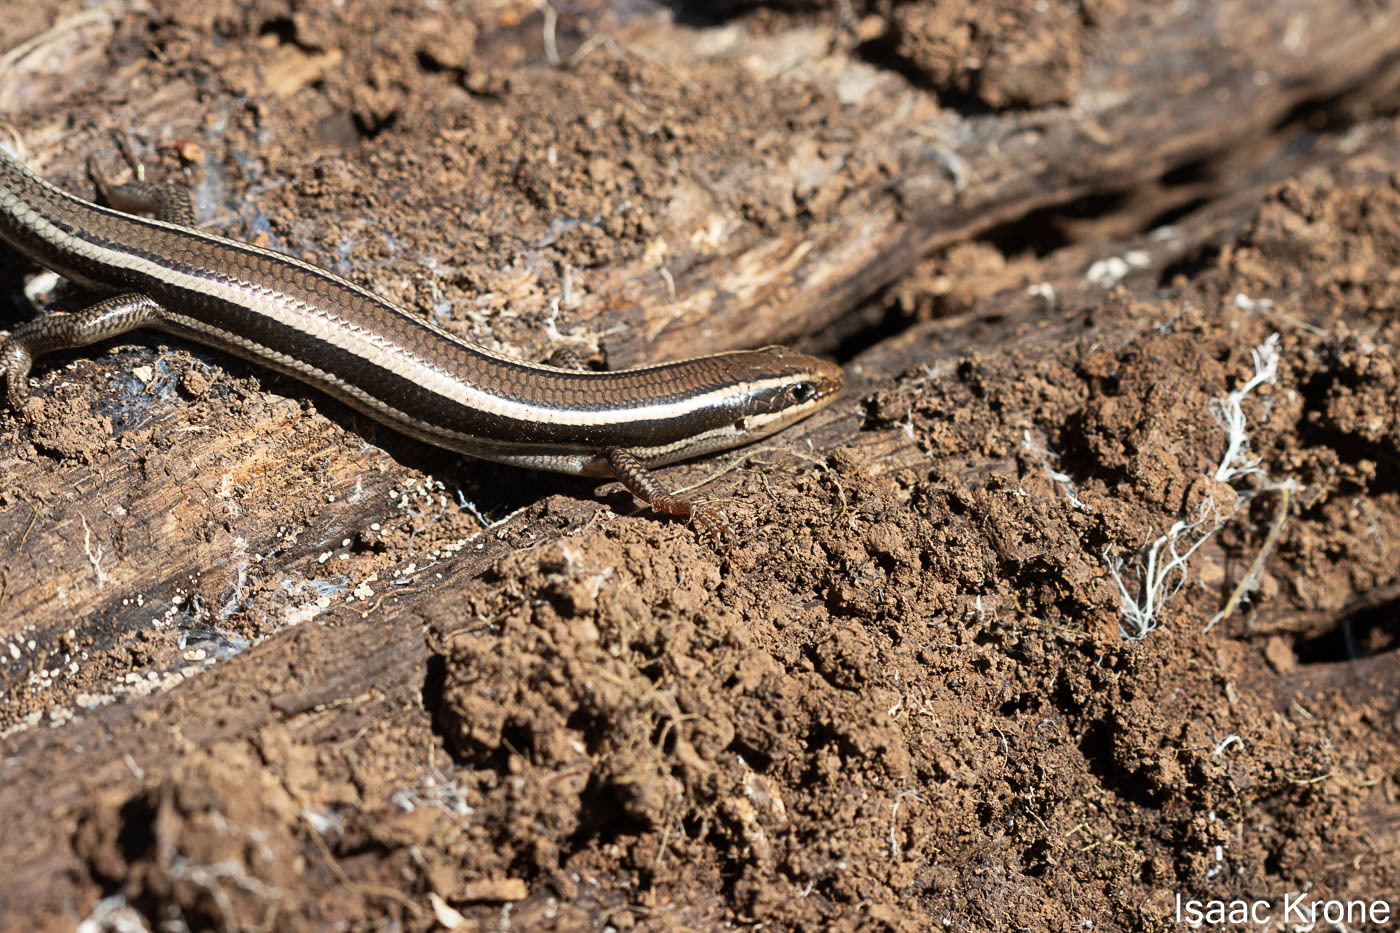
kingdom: Animalia
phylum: Chordata
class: Squamata
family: Scincidae
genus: Plestiodon
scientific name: Plestiodon skiltonianus
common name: Coronado island skink [interparietalis]
